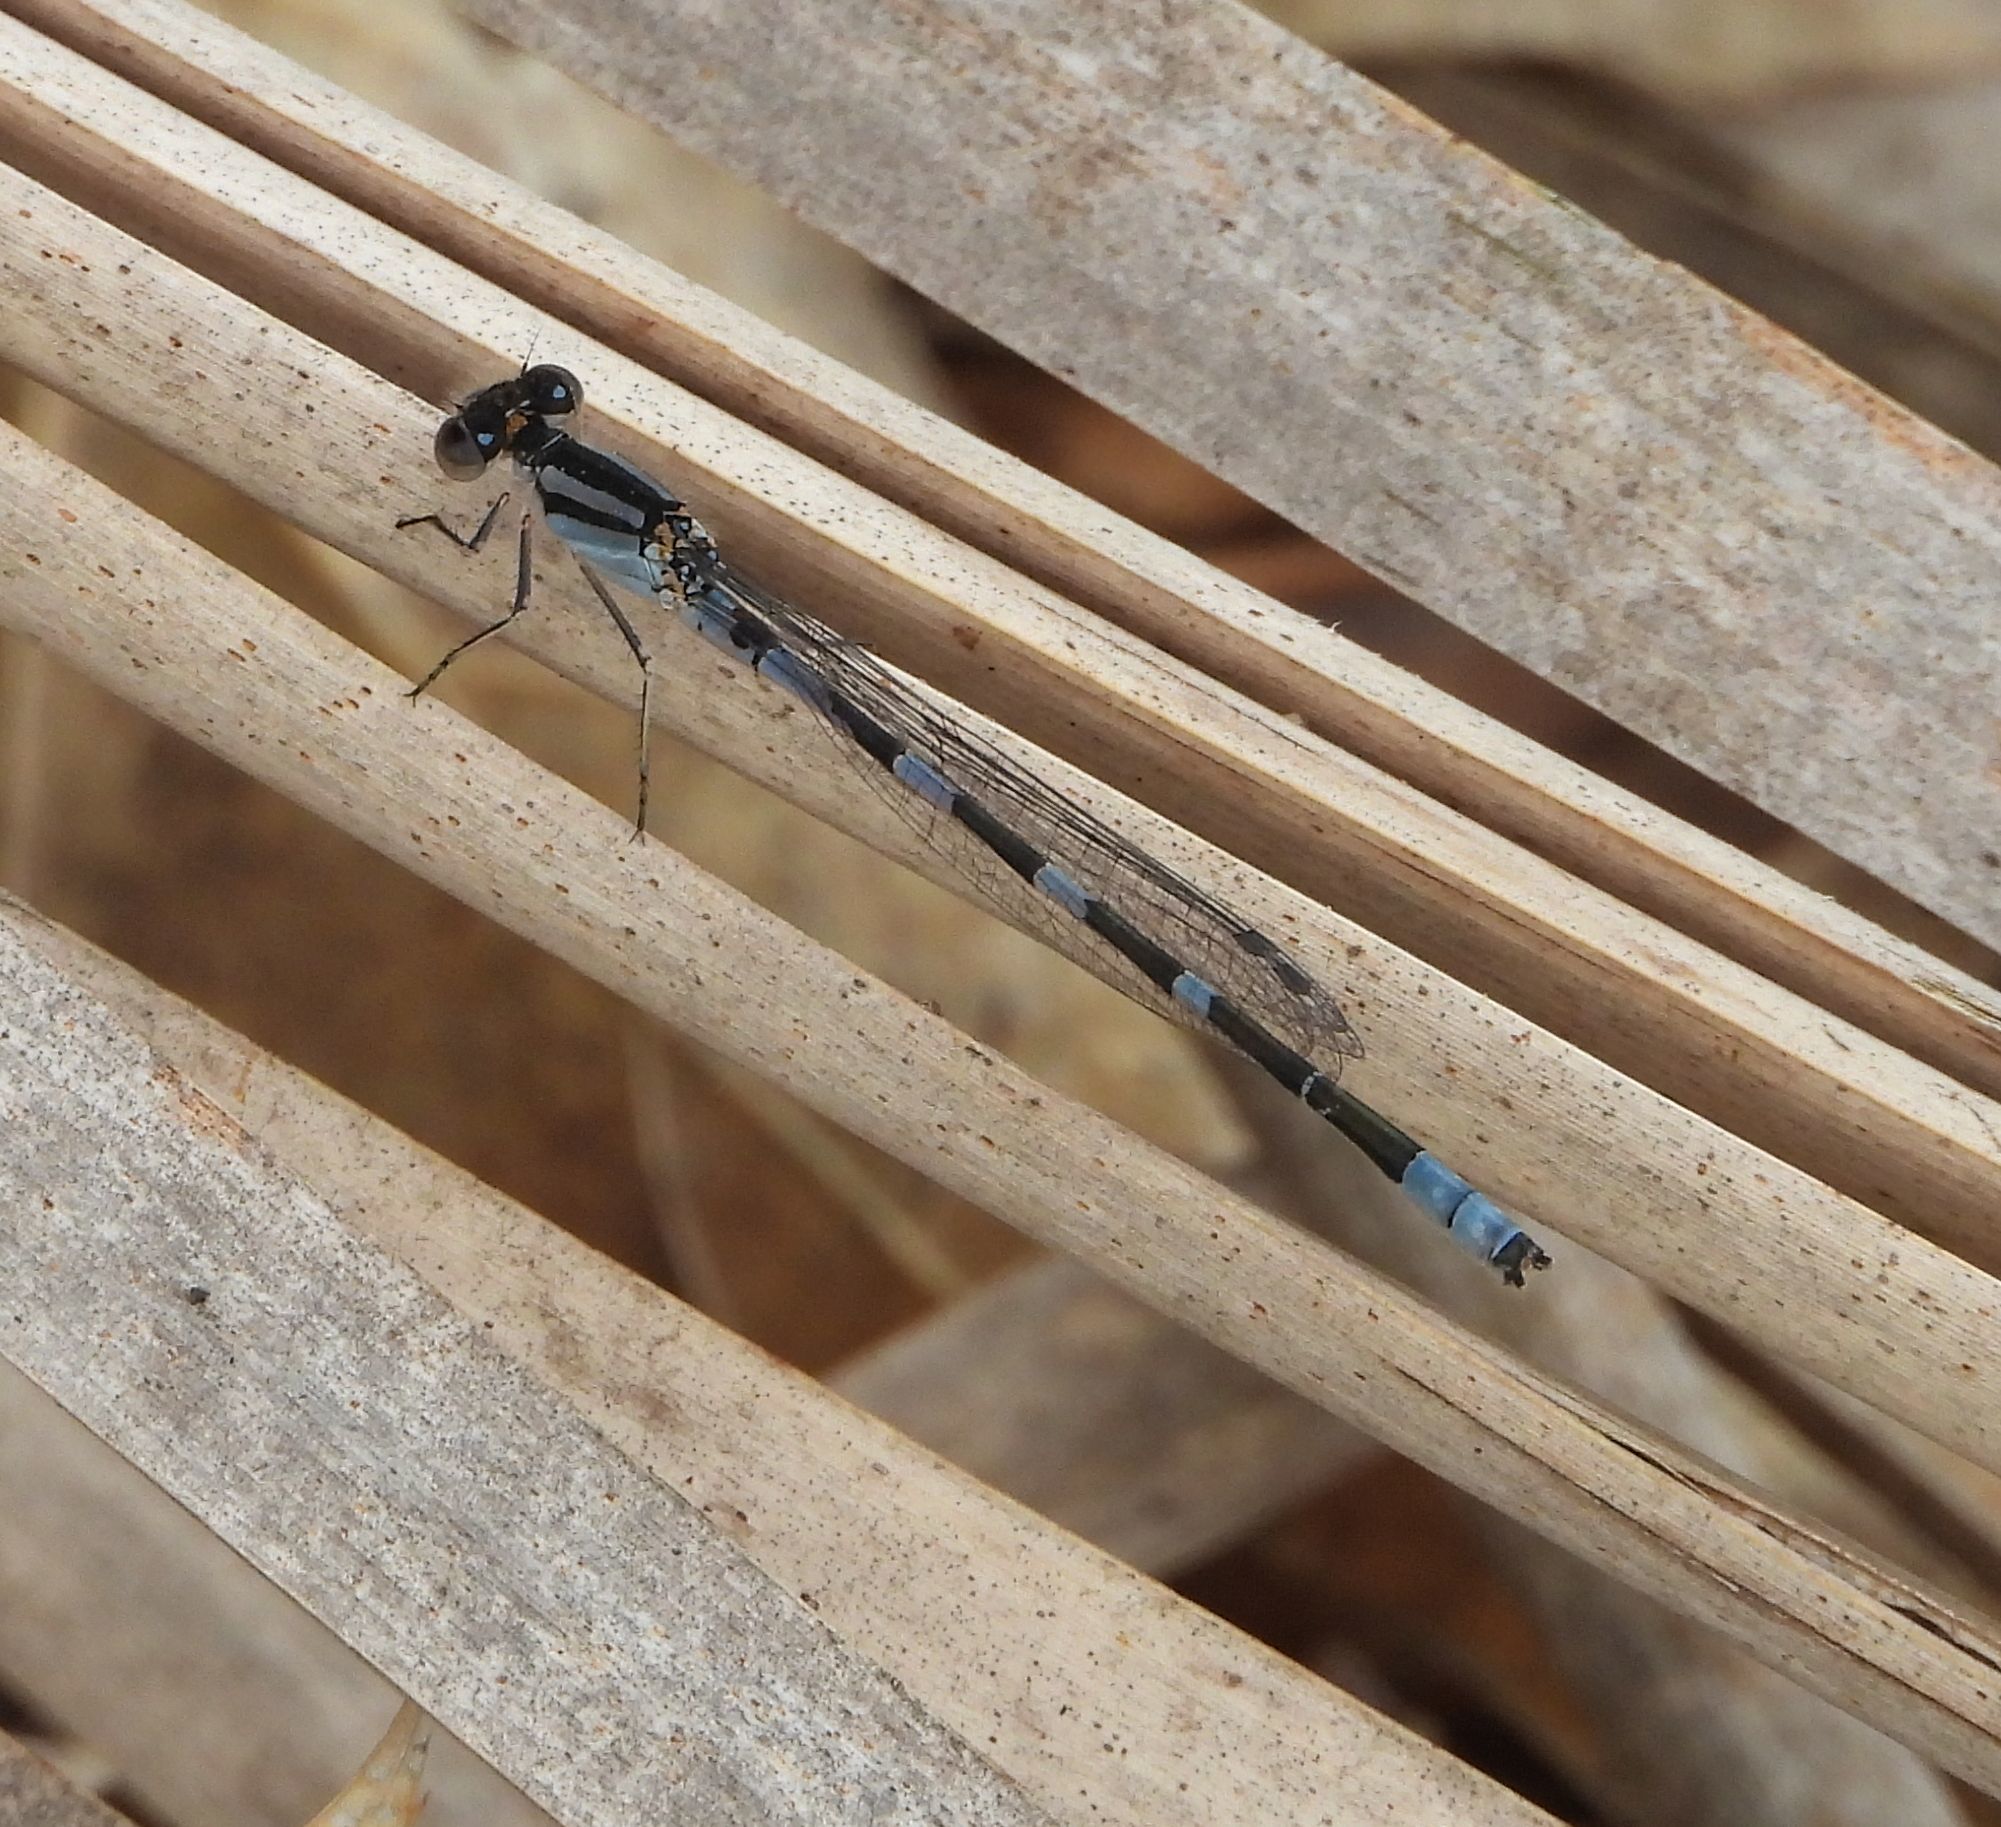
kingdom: Animalia
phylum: Arthropoda
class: Insecta
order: Odonata
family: Coenagrionidae
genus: Enallagma
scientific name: Enallagma carunculatum
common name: Tule bluet
